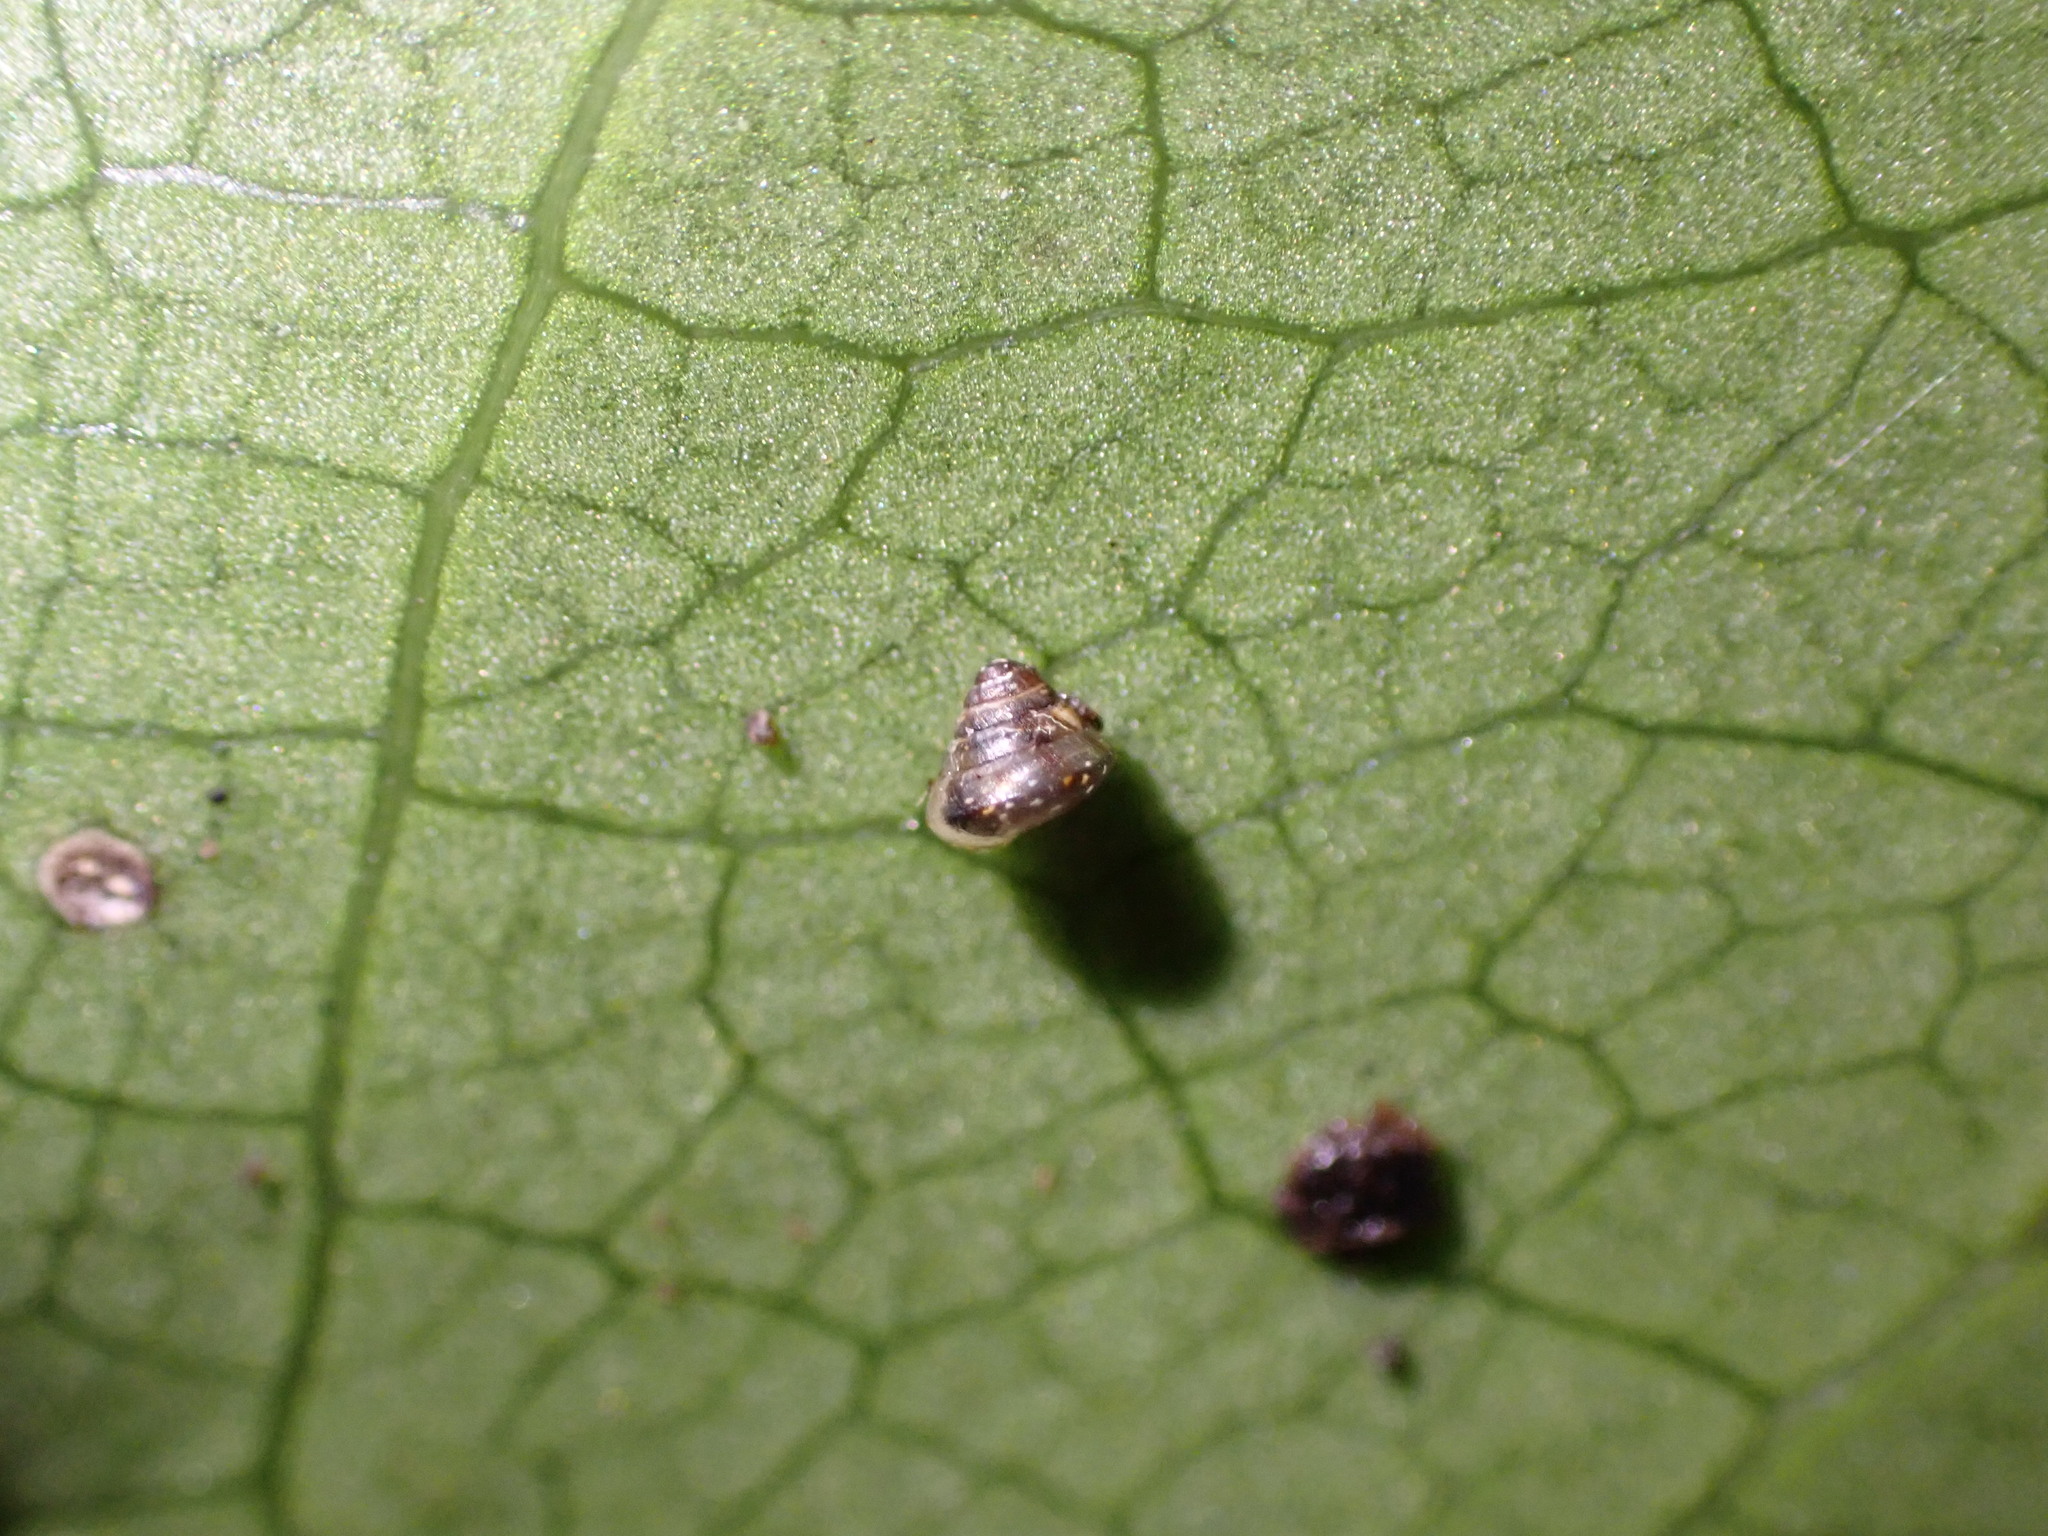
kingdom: Animalia
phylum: Mollusca
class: Gastropoda
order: Stylommatophora
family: Punctidae
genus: Phrixgnathus
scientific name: Phrixgnathus erigone
